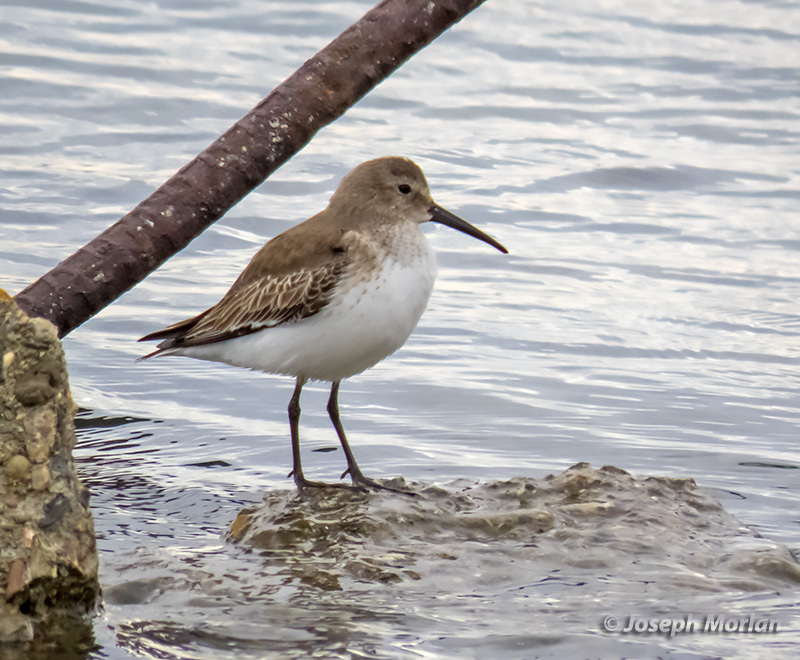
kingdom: Animalia
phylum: Chordata
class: Aves
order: Charadriiformes
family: Scolopacidae
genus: Calidris
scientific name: Calidris alpina
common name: Dunlin
